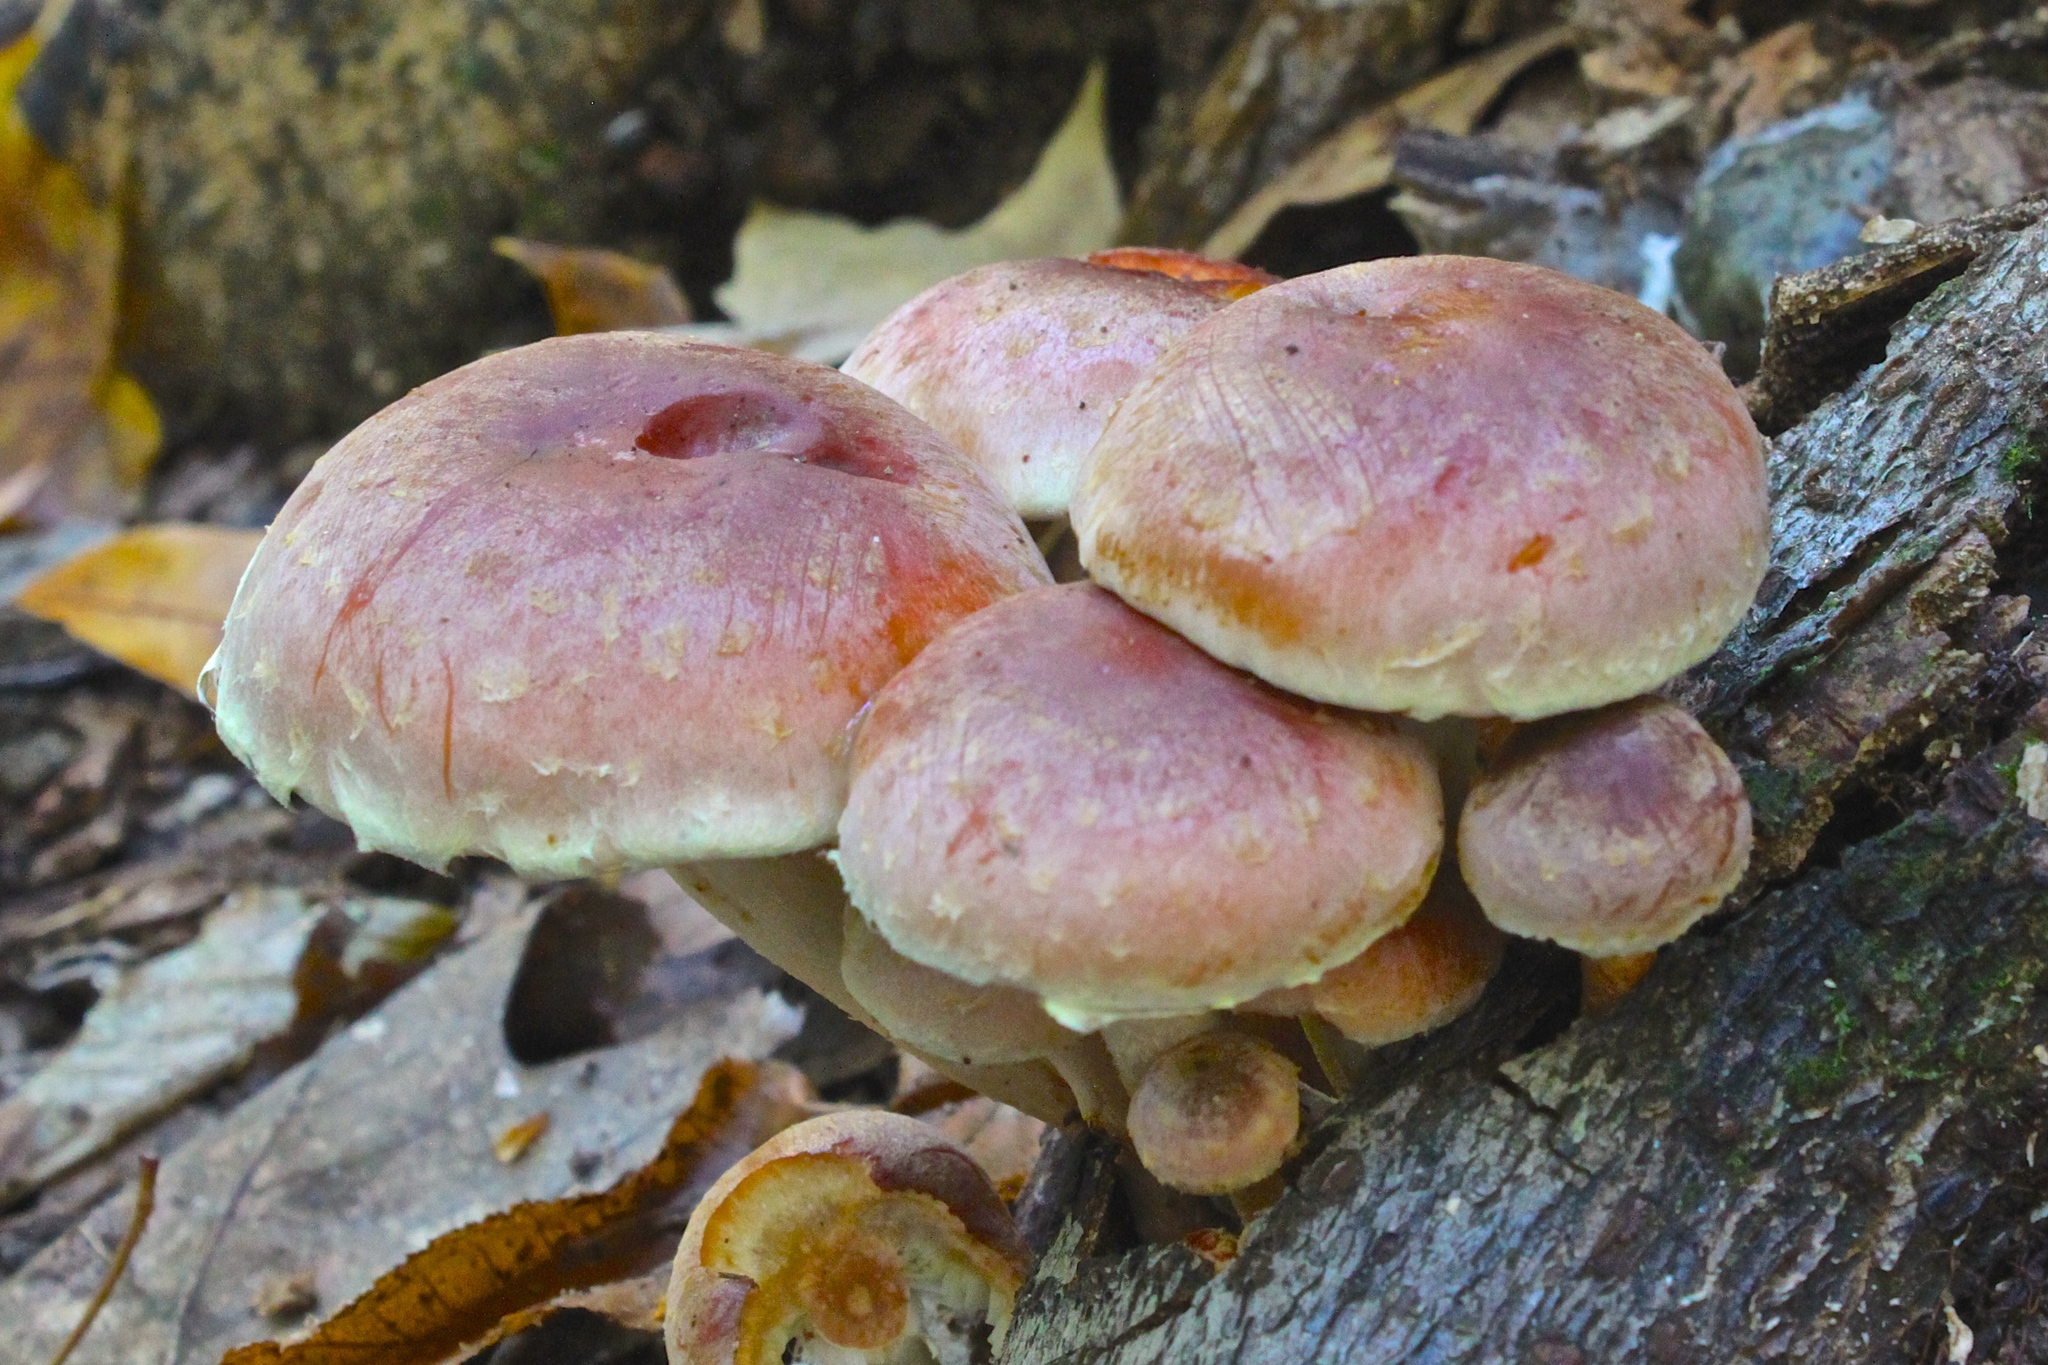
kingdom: Fungi
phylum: Basidiomycota
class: Agaricomycetes
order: Agaricales
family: Strophariaceae
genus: Hypholoma
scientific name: Hypholoma lateritium
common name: Brick caps
